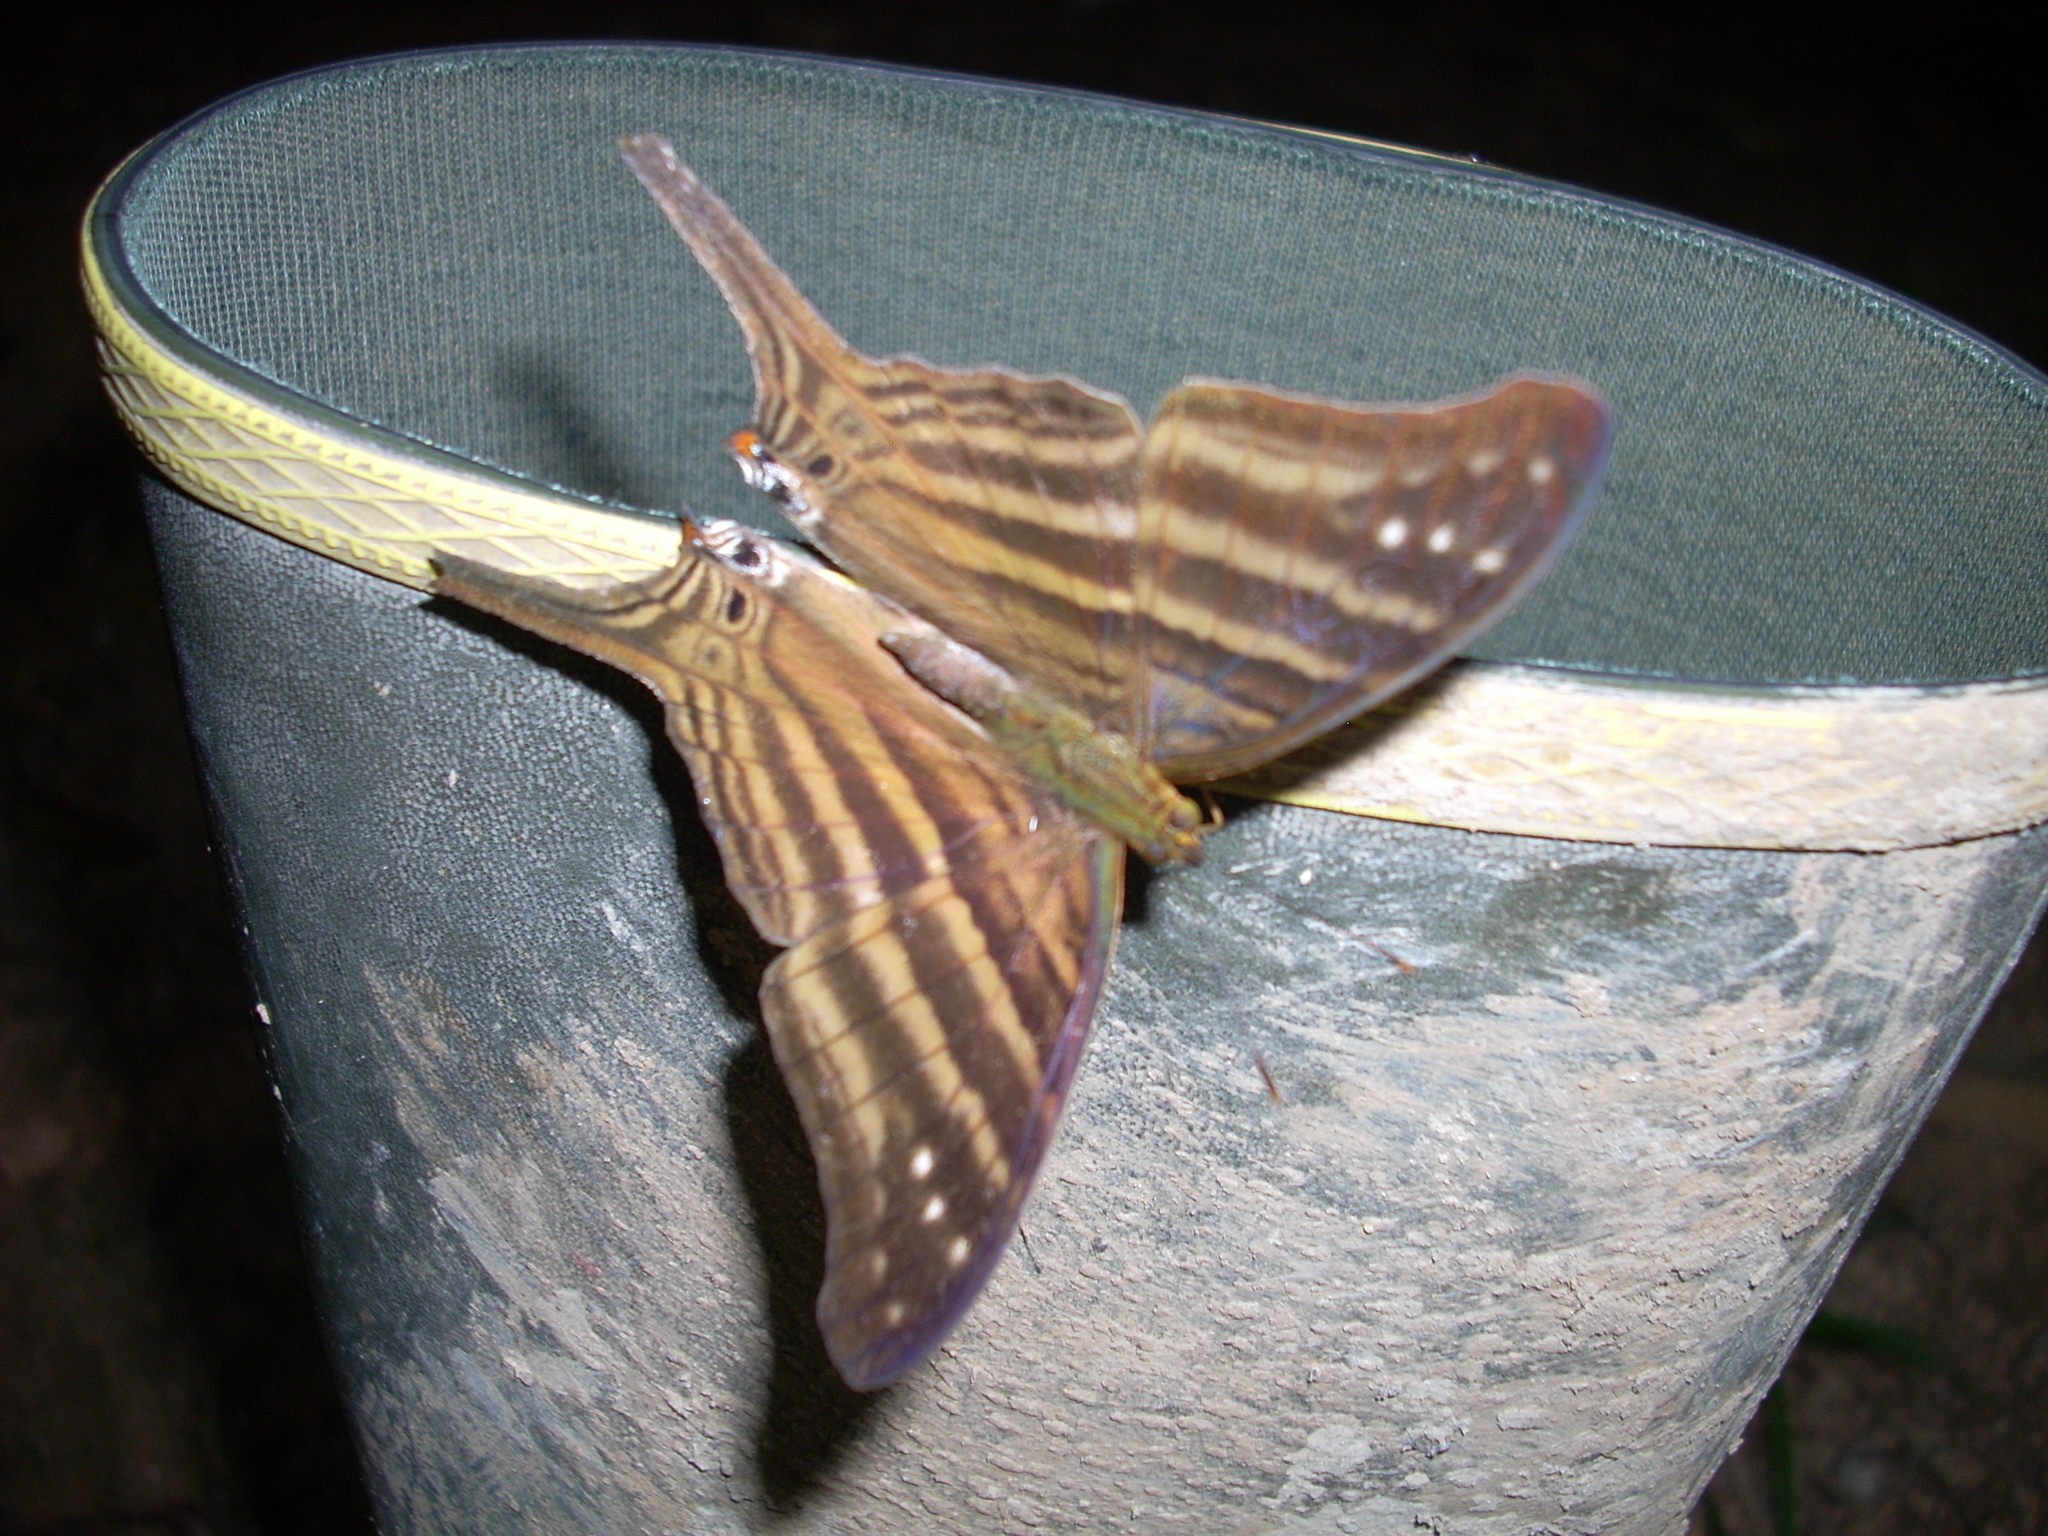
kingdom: Animalia
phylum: Arthropoda
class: Insecta
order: Lepidoptera
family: Nymphalidae
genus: Marpesia
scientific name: Marpesia chiron
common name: Many-banded daggerwing
